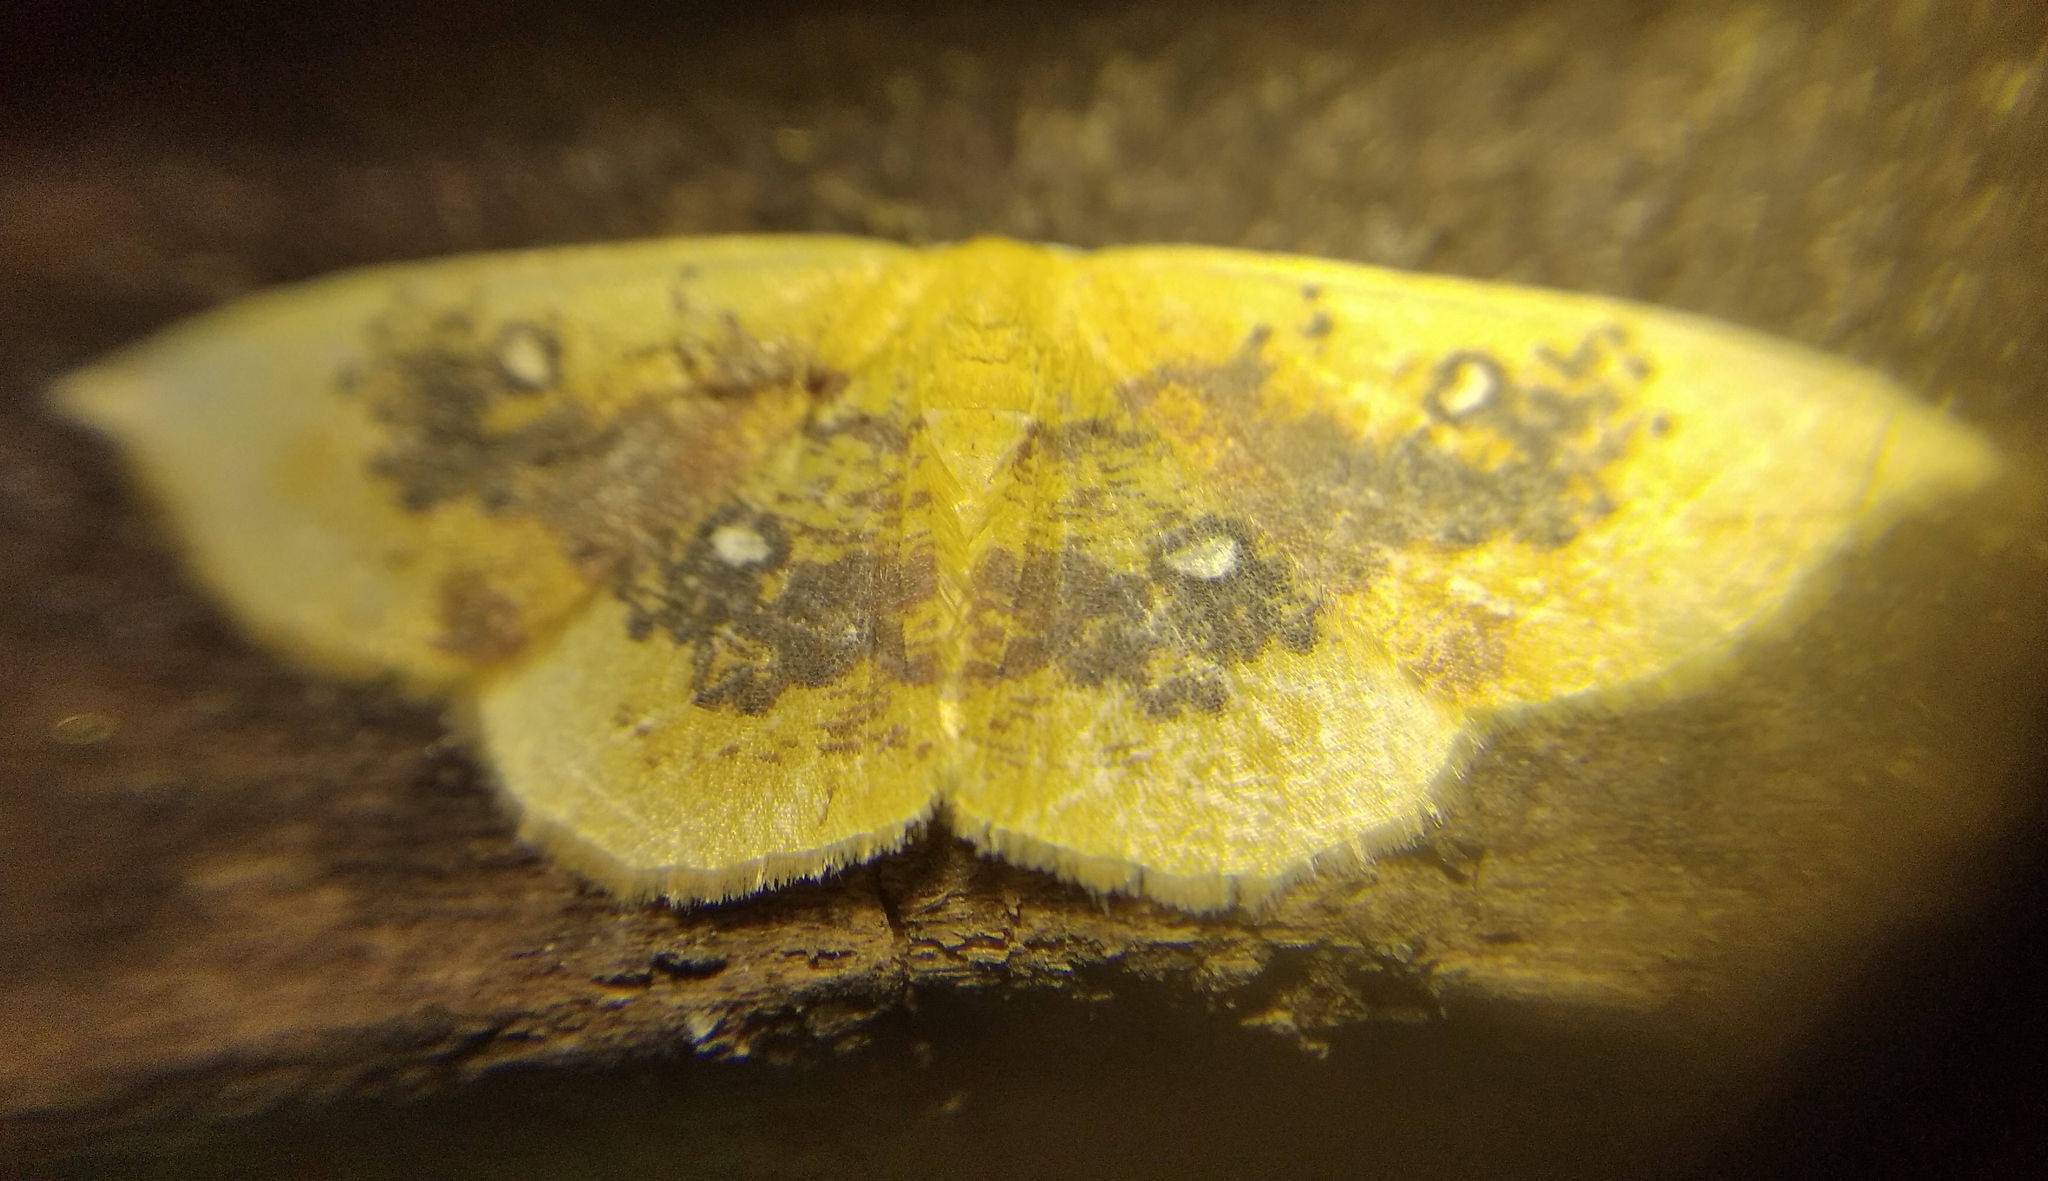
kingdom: Animalia
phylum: Arthropoda
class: Insecta
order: Lepidoptera
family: Geometridae
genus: Cyclophora
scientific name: Cyclophora albiocellaria
